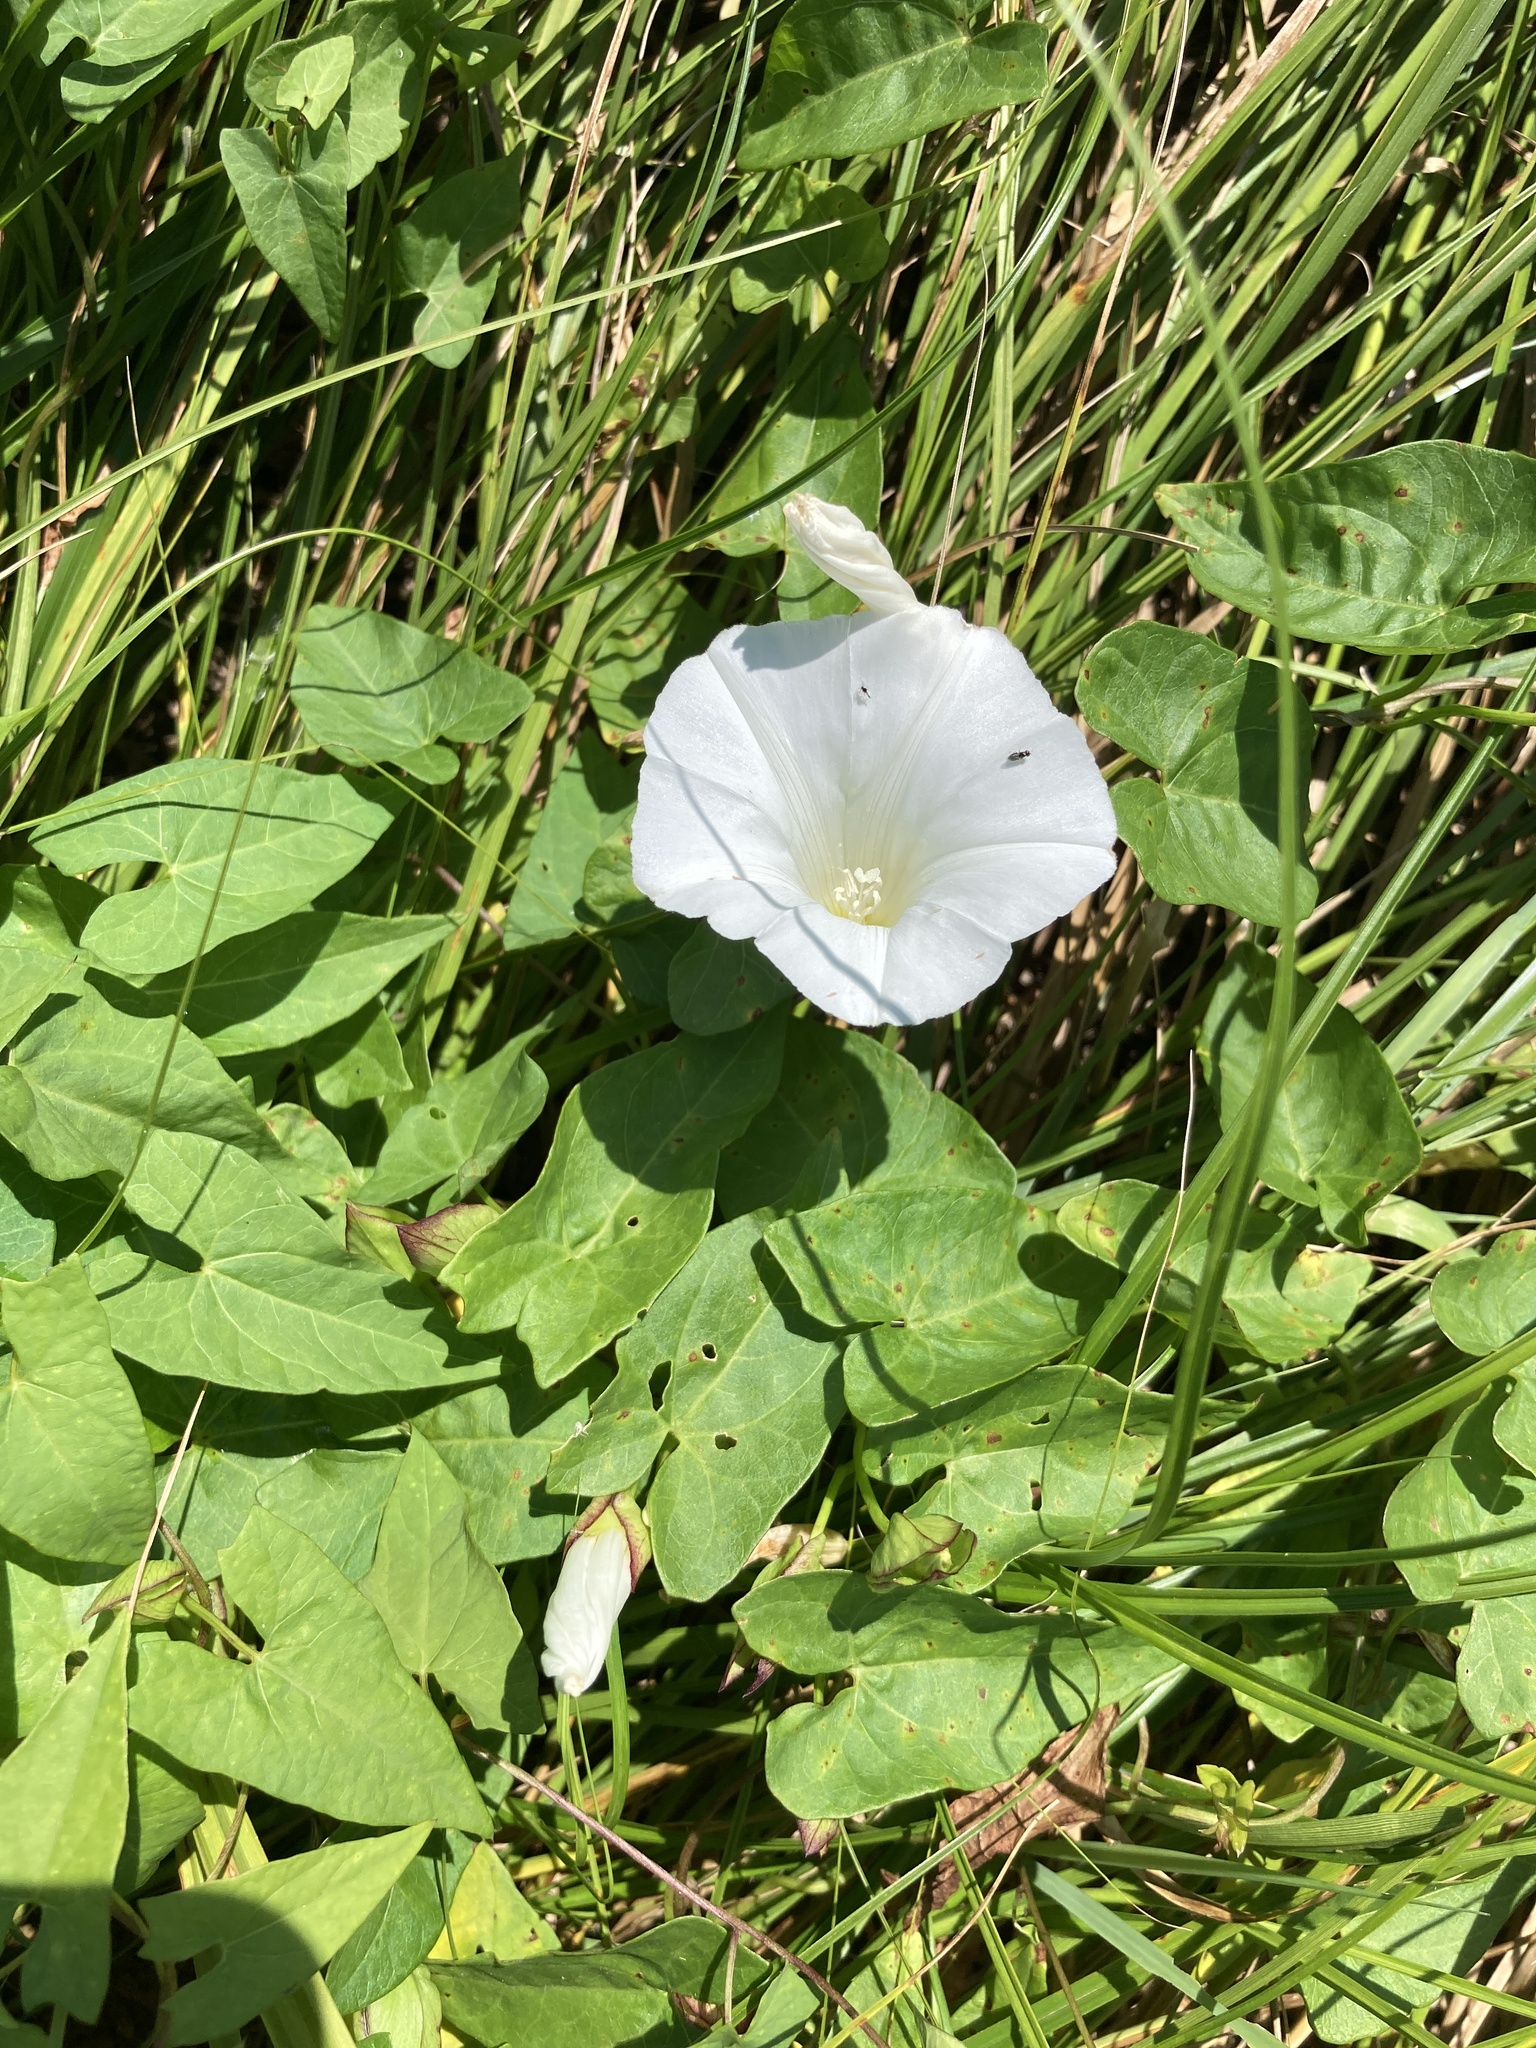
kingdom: Plantae
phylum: Tracheophyta
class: Magnoliopsida
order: Solanales
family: Convolvulaceae
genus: Calystegia
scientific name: Calystegia sepium
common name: Hedge bindweed
